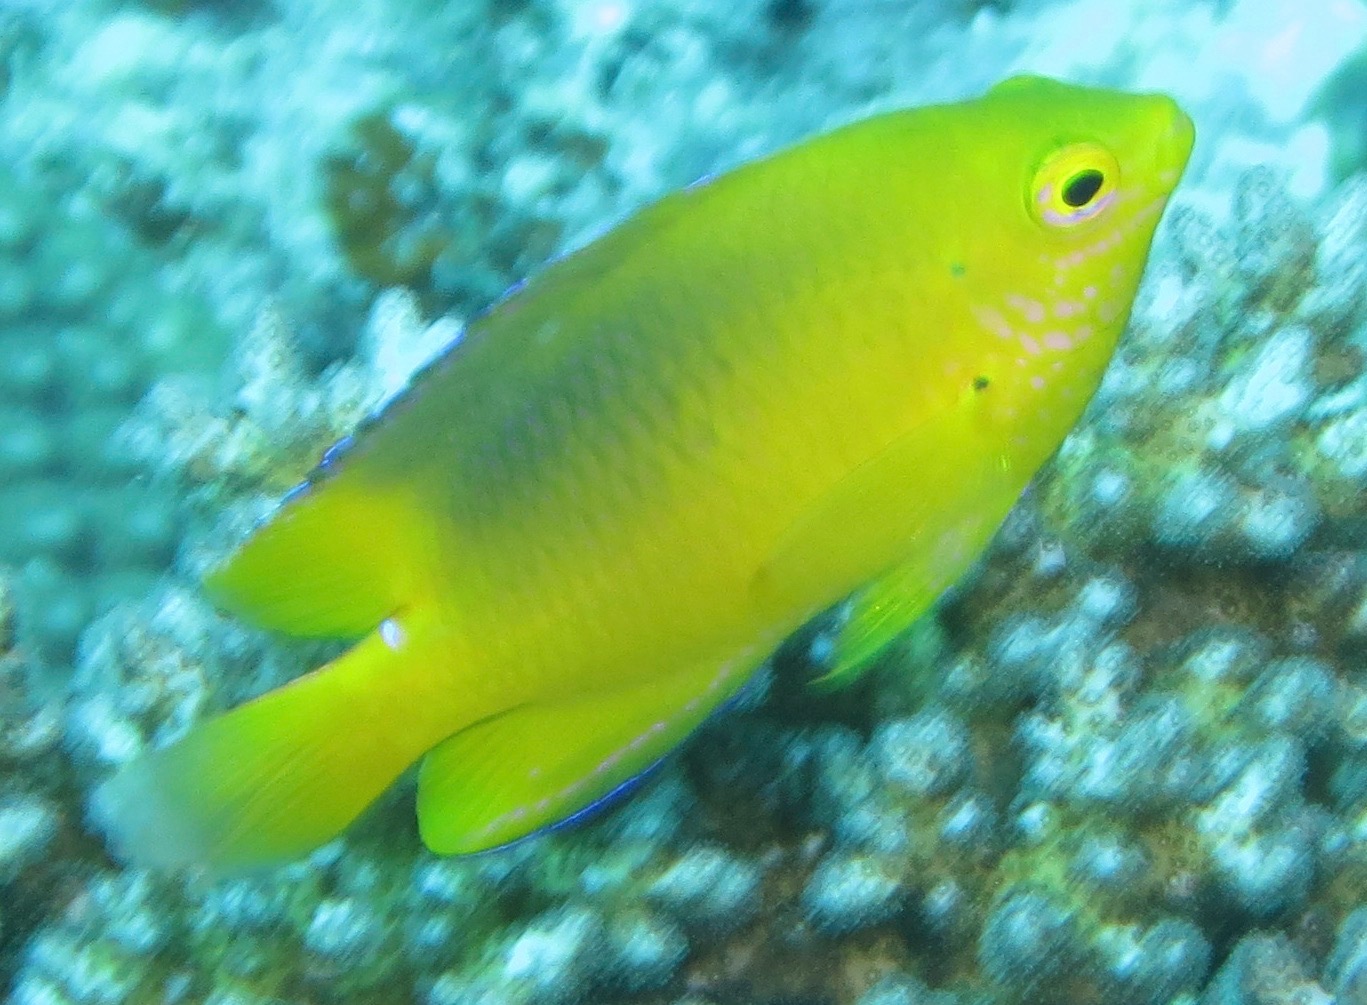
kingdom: Animalia
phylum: Chordata
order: Perciformes
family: Pomacentridae
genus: Pomacentrus
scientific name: Pomacentrus maafu
